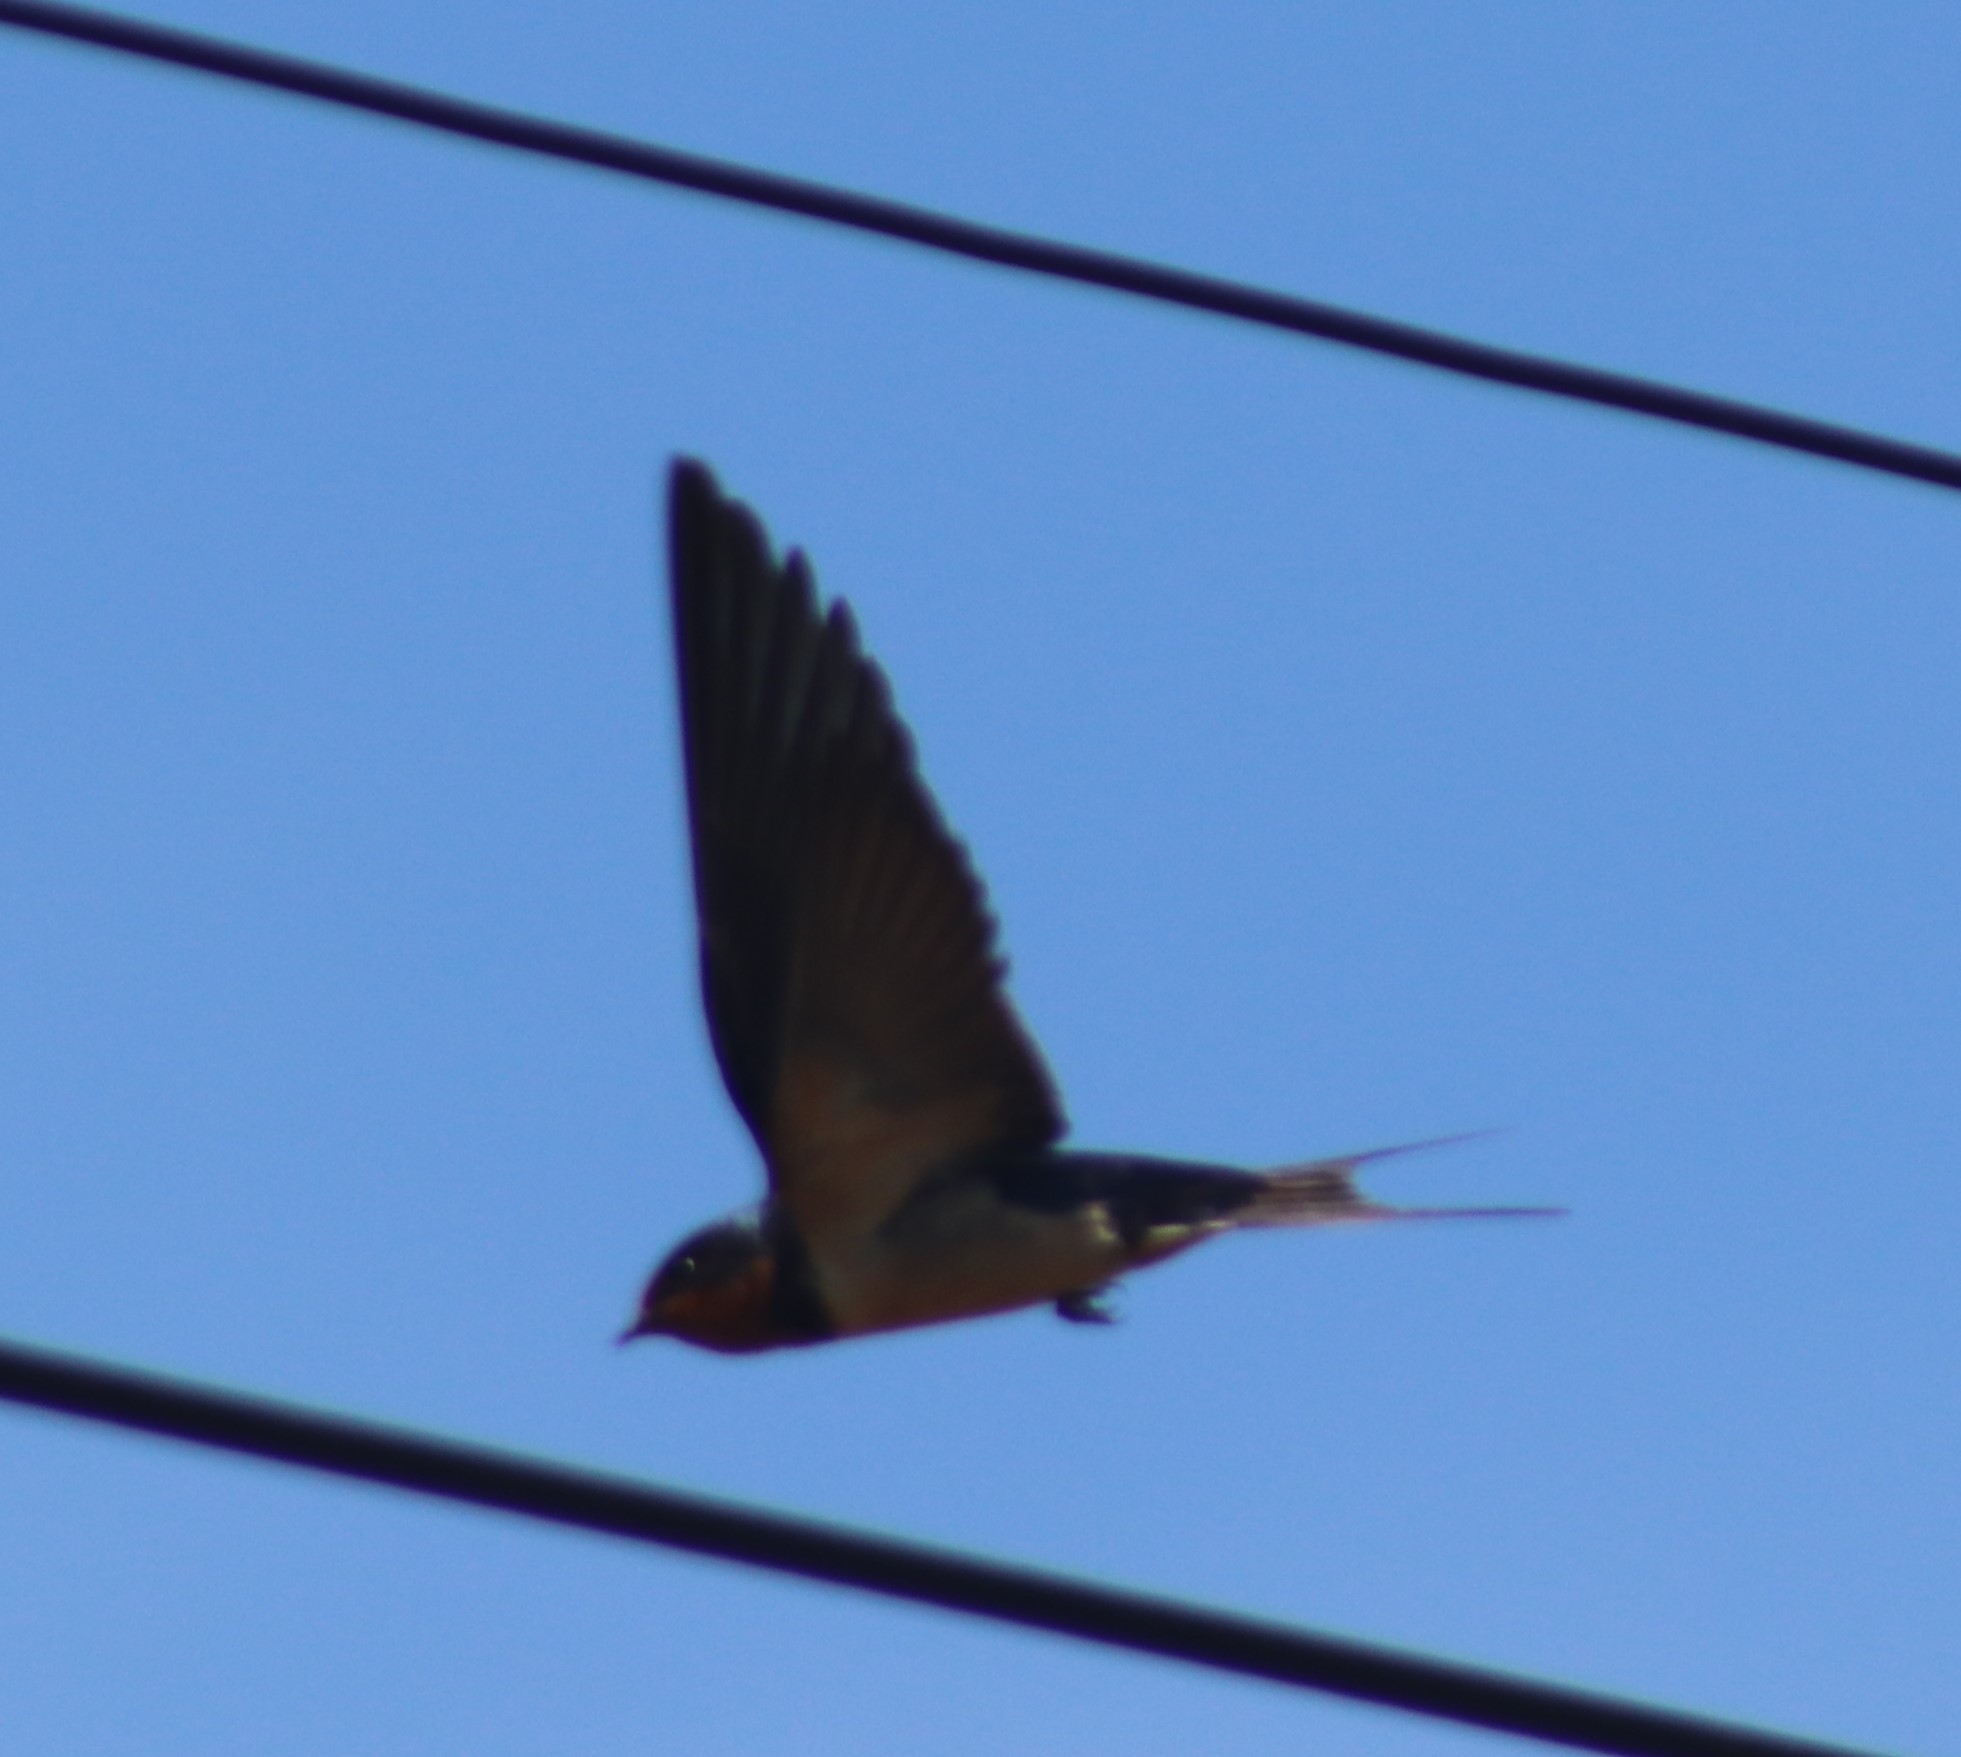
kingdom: Animalia
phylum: Chordata
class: Aves
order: Passeriformes
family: Hirundinidae
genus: Hirundo
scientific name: Hirundo rustica
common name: Barn swallow
